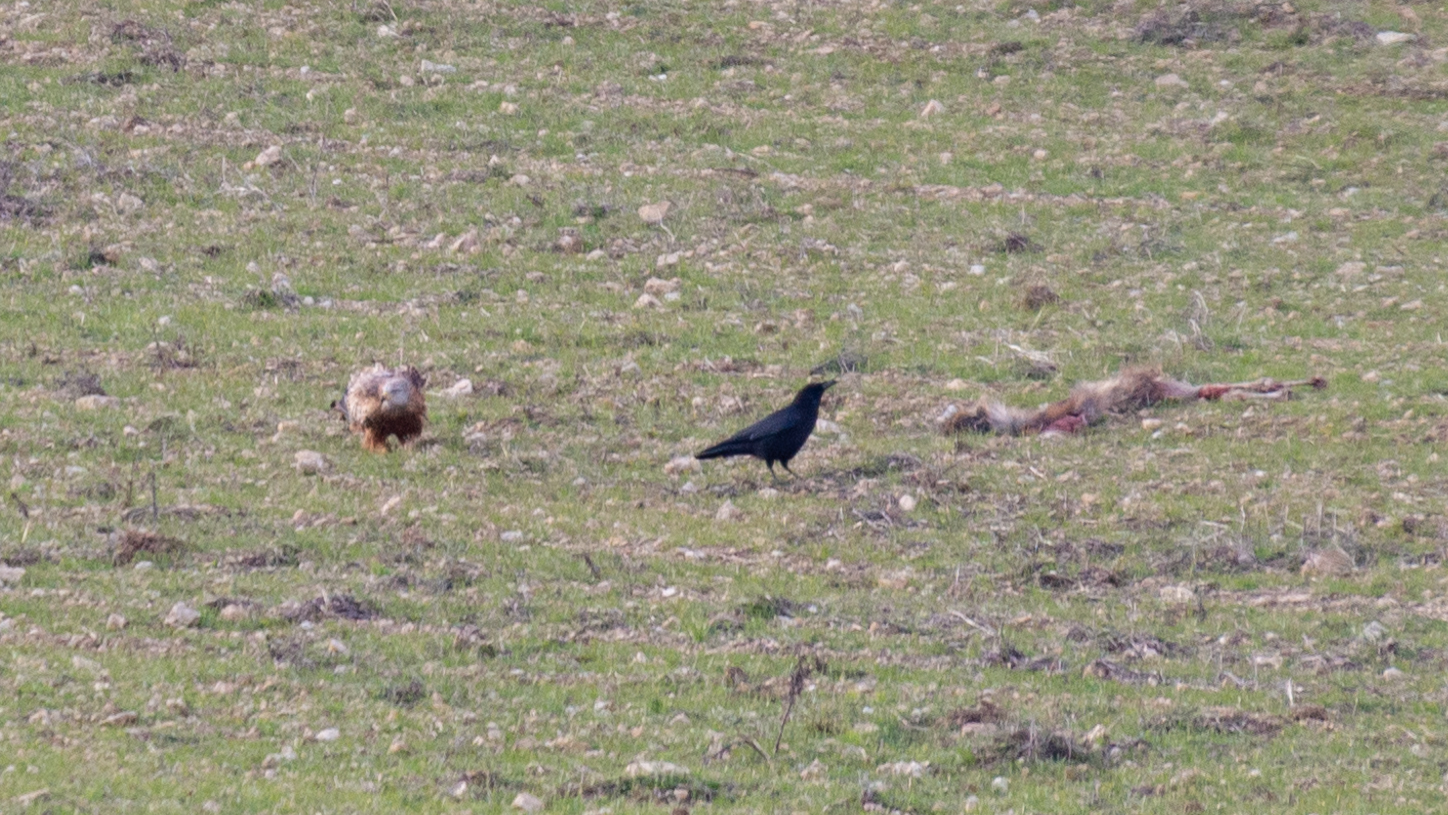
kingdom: Animalia
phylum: Chordata
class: Aves
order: Passeriformes
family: Corvidae
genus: Corvus
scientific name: Corvus corax
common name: Common raven
